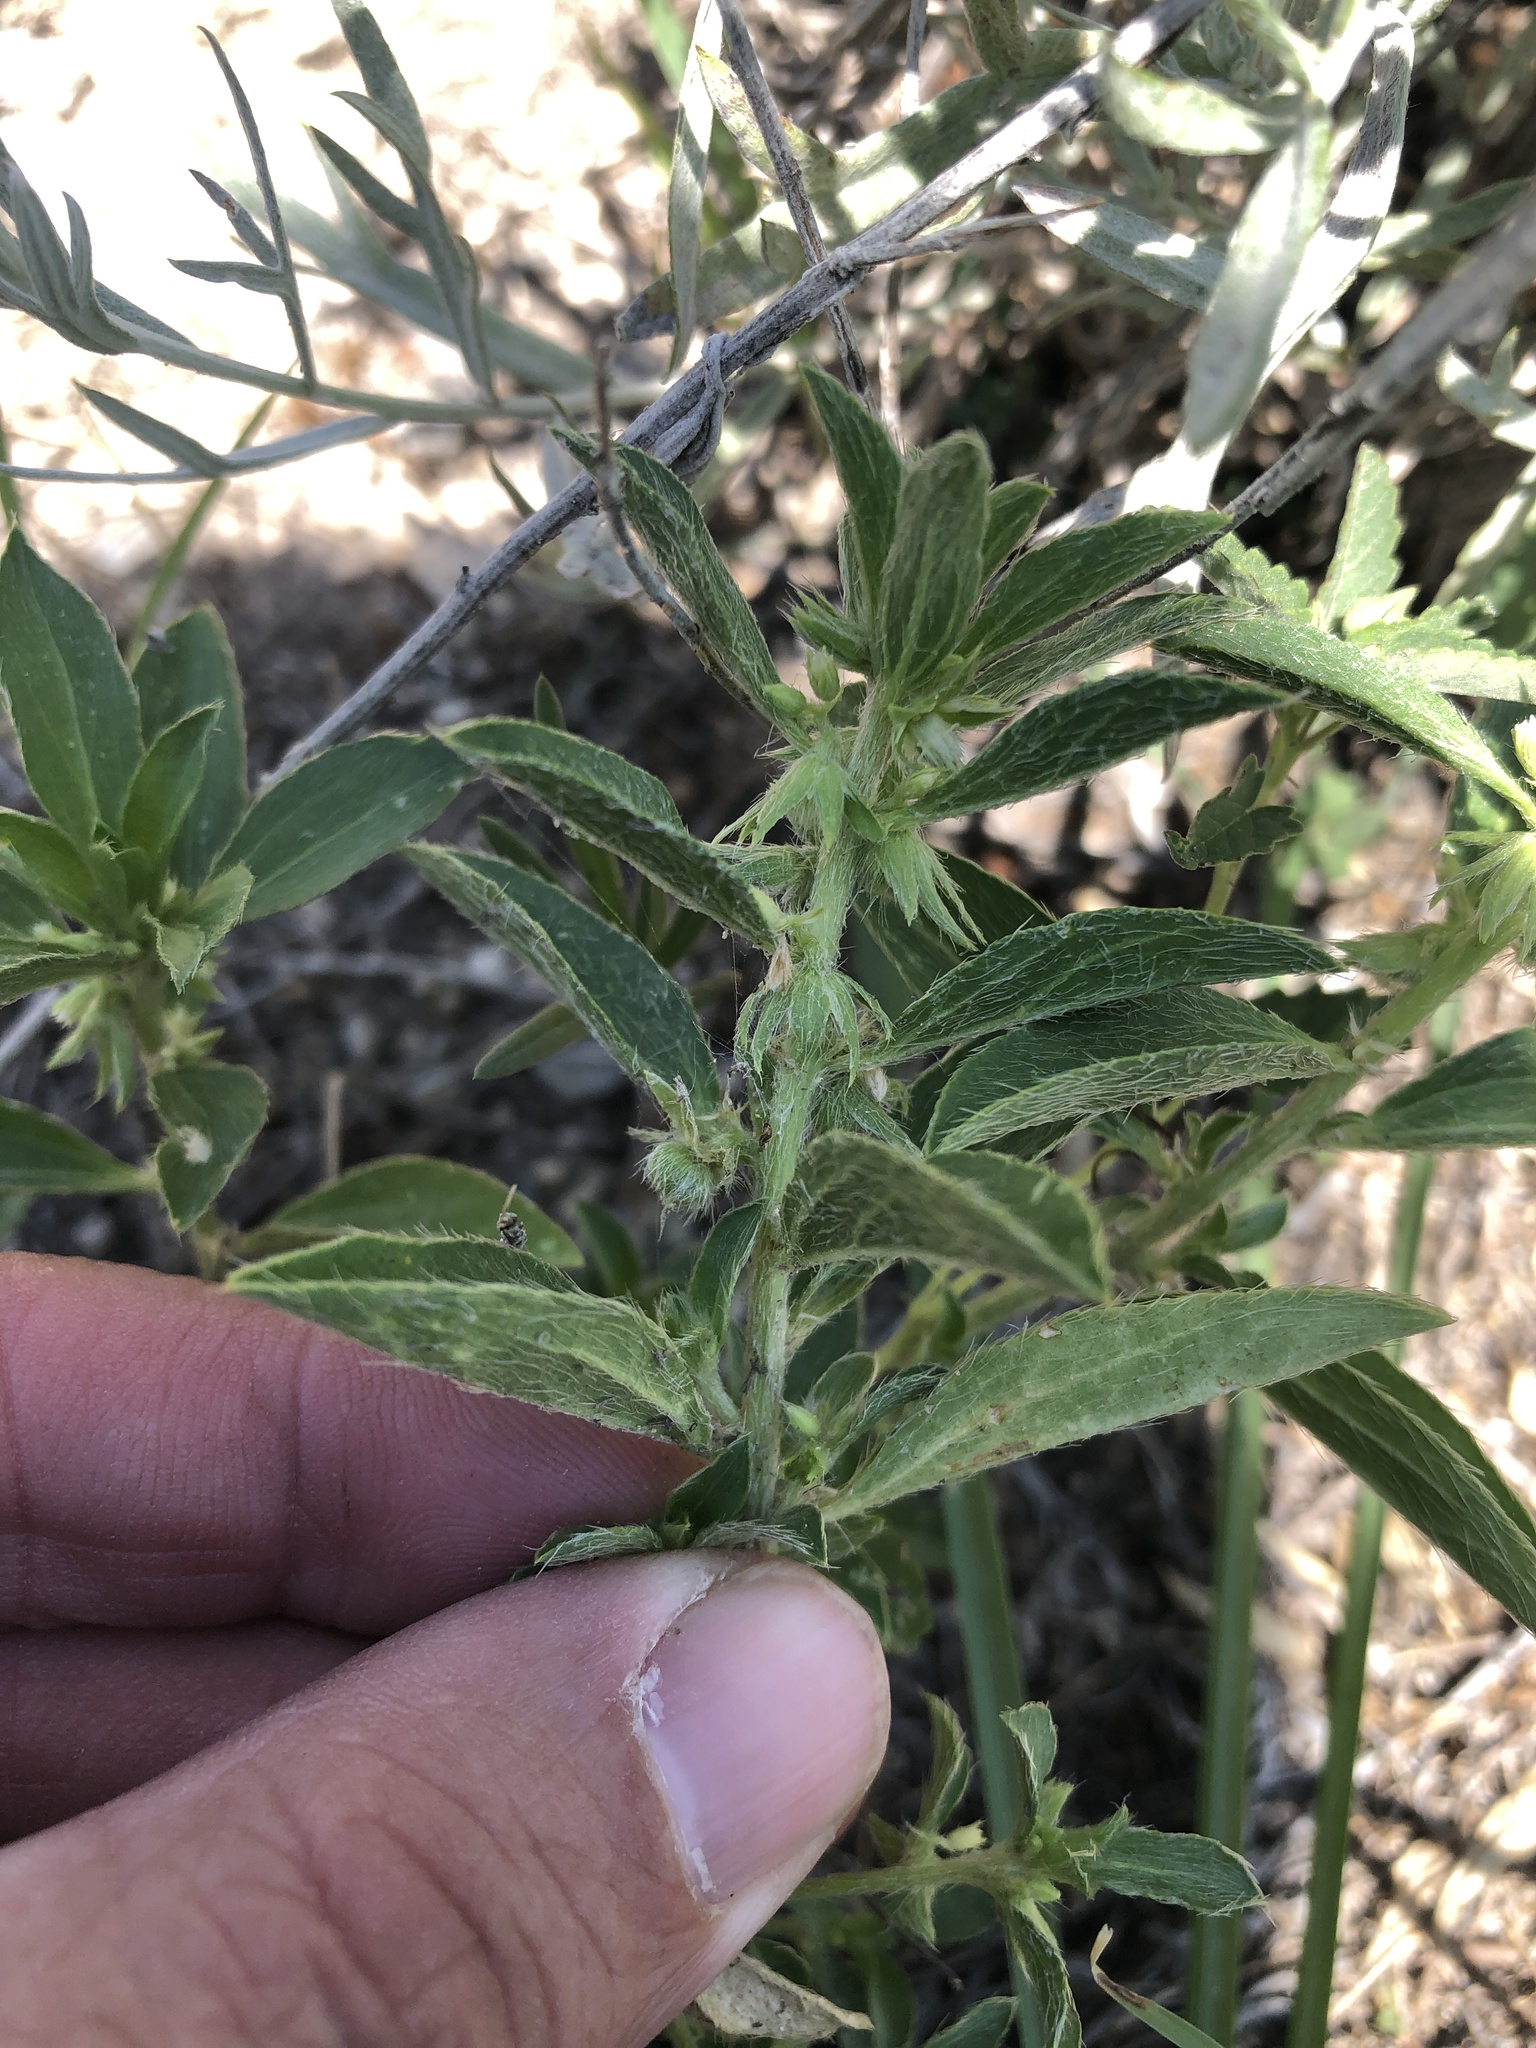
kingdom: Plantae
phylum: Tracheophyta
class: Magnoliopsida
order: Malpighiales
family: Euphorbiaceae
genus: Ditaxis
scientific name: Ditaxis humilis
